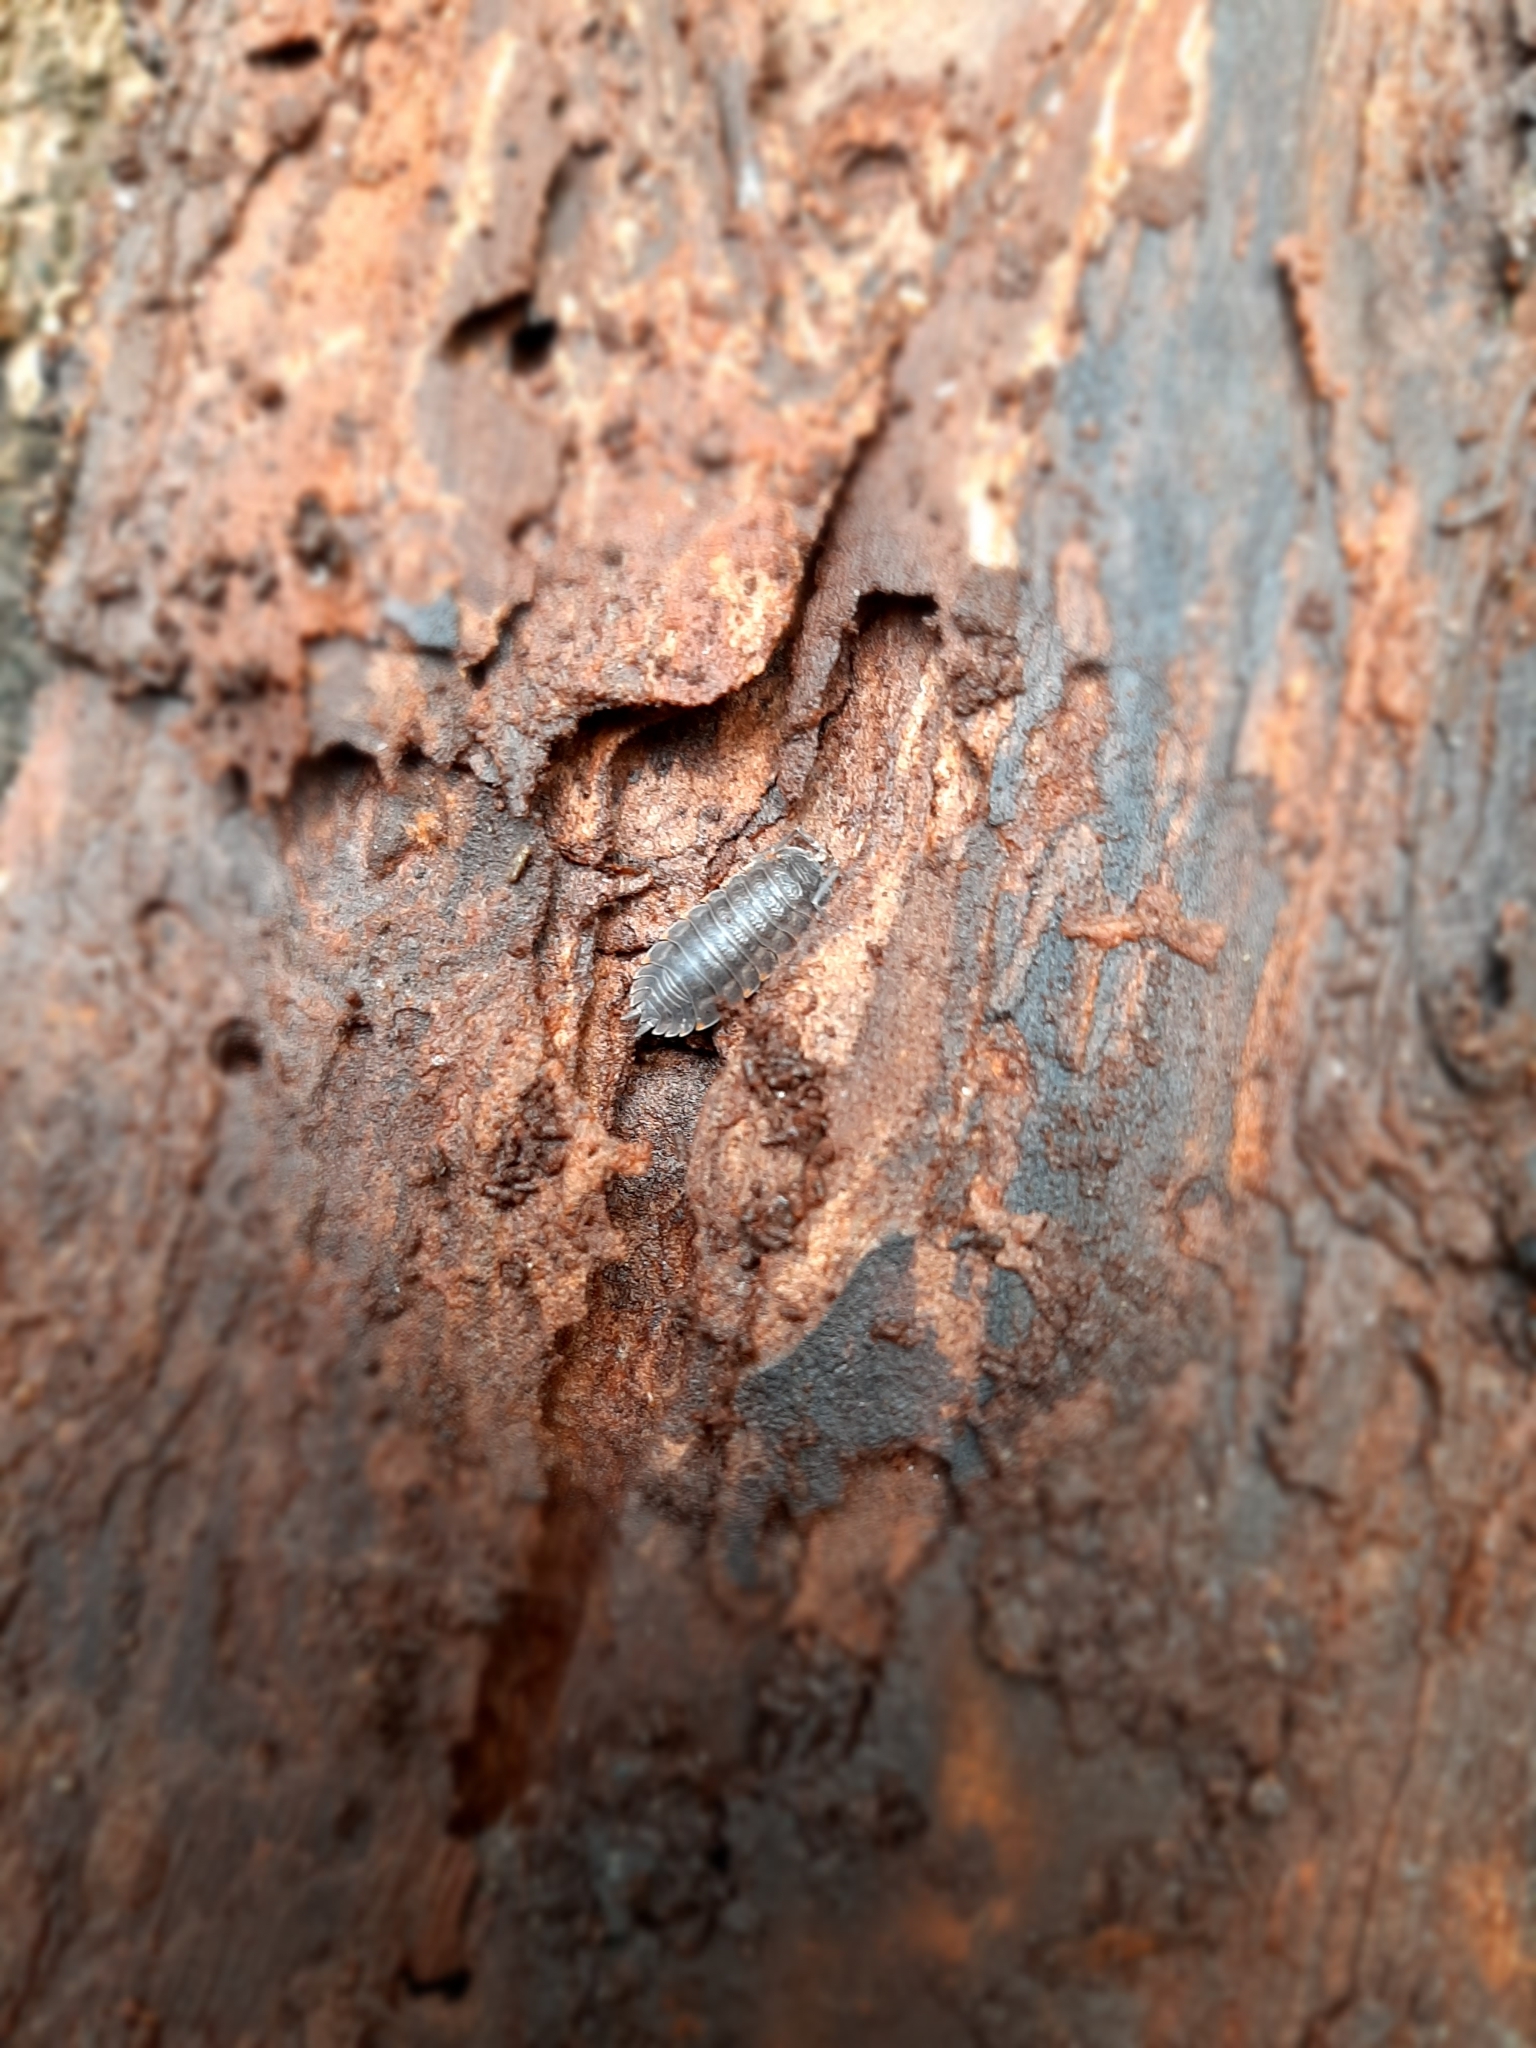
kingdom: Animalia
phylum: Arthropoda
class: Malacostraca
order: Isopoda
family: Trachelipodidae
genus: Trachelipus
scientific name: Trachelipus
